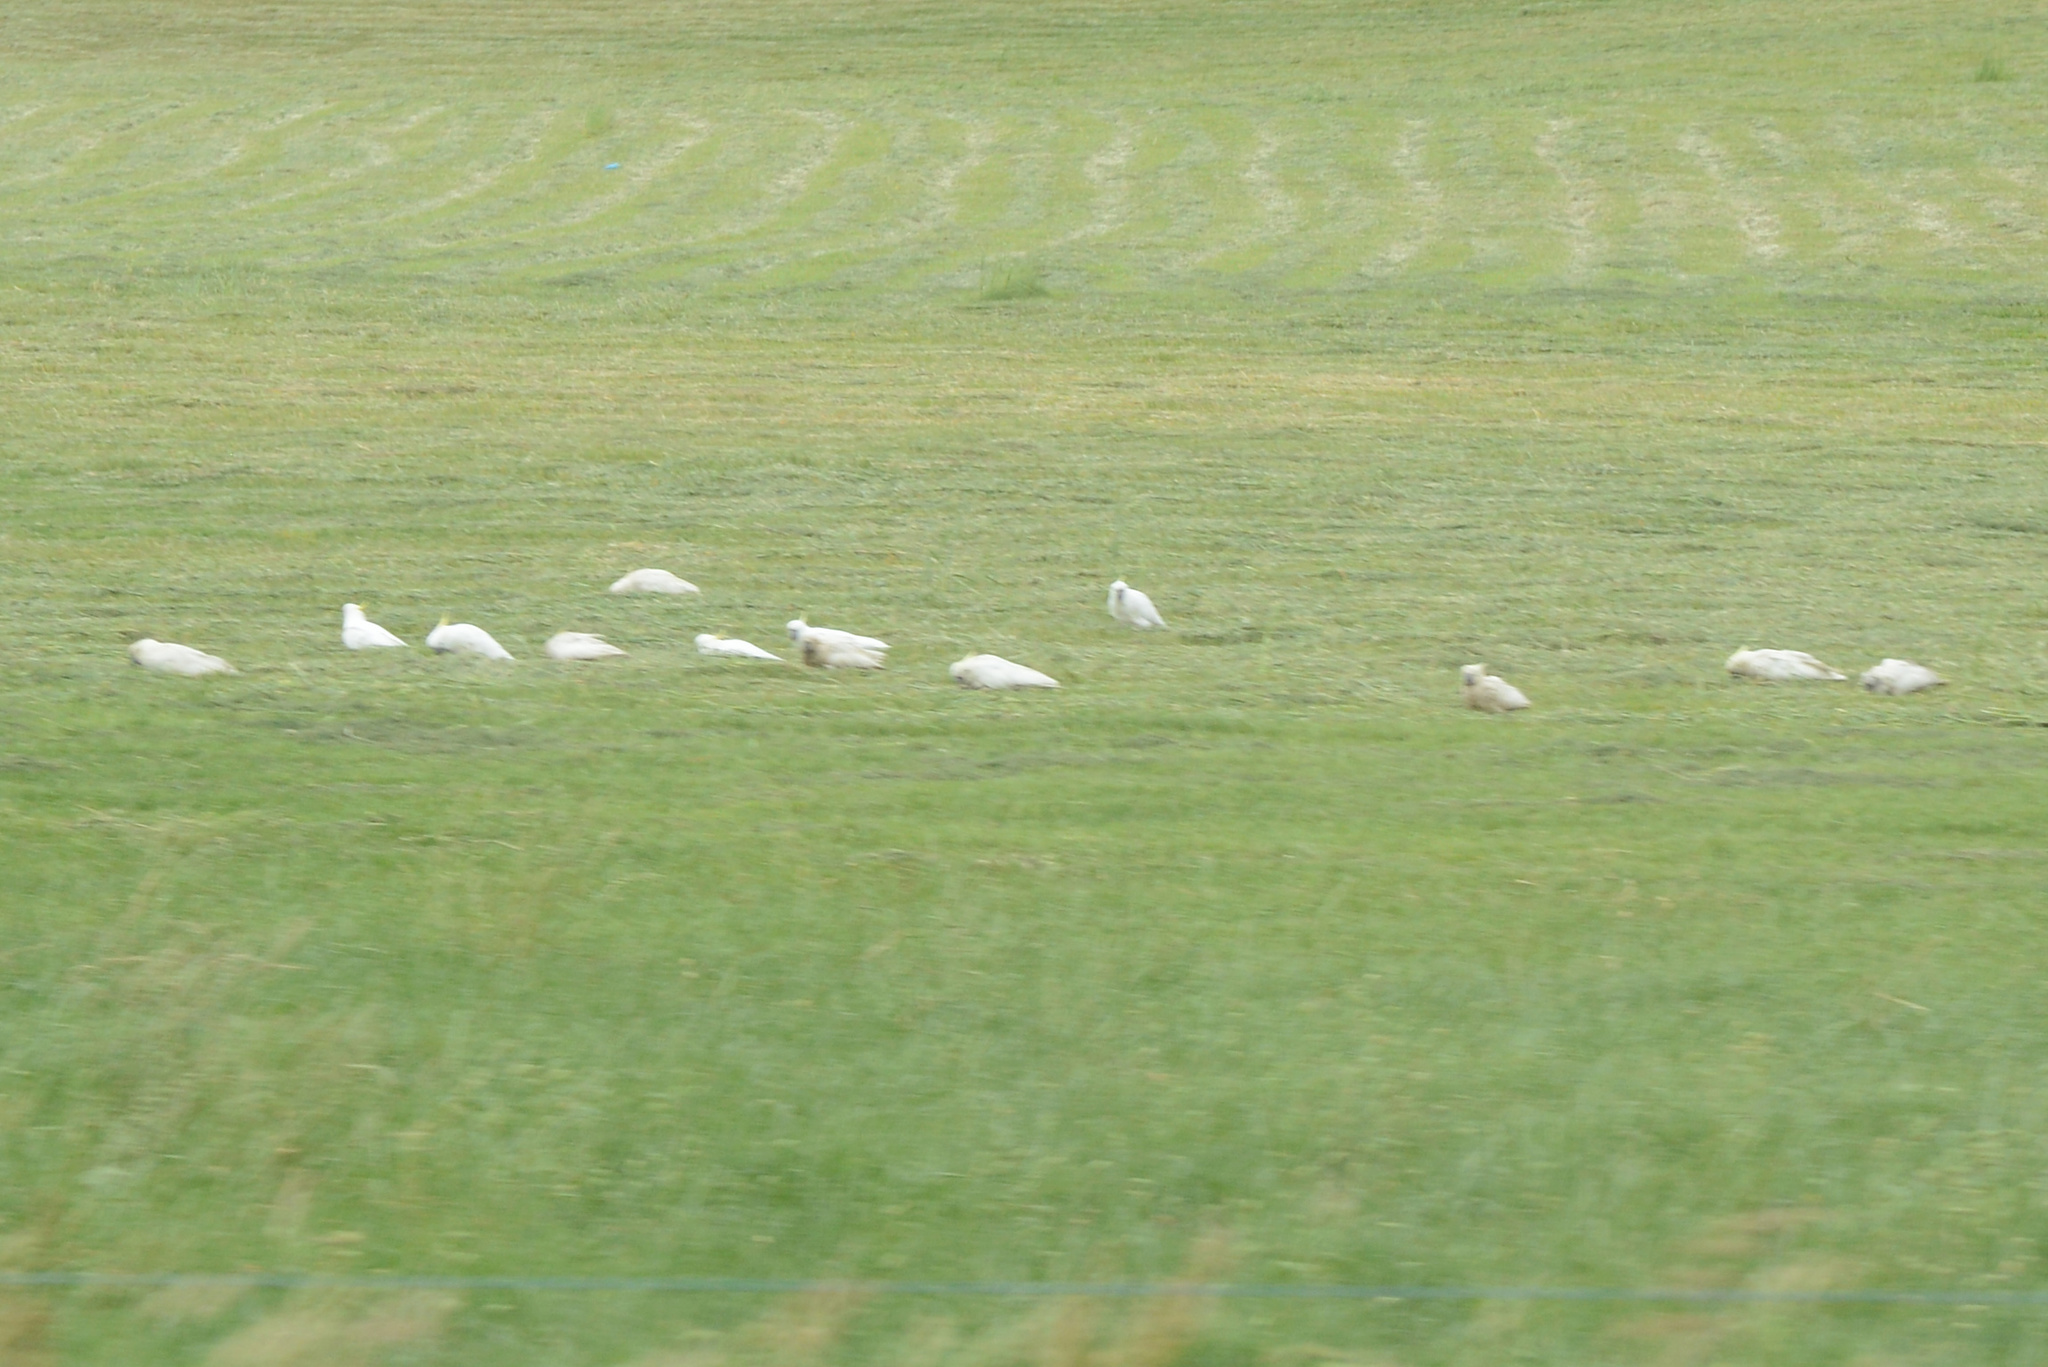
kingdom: Animalia
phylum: Chordata
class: Aves
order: Psittaciformes
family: Psittacidae
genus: Cacatua
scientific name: Cacatua galerita
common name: Sulphur-crested cockatoo
